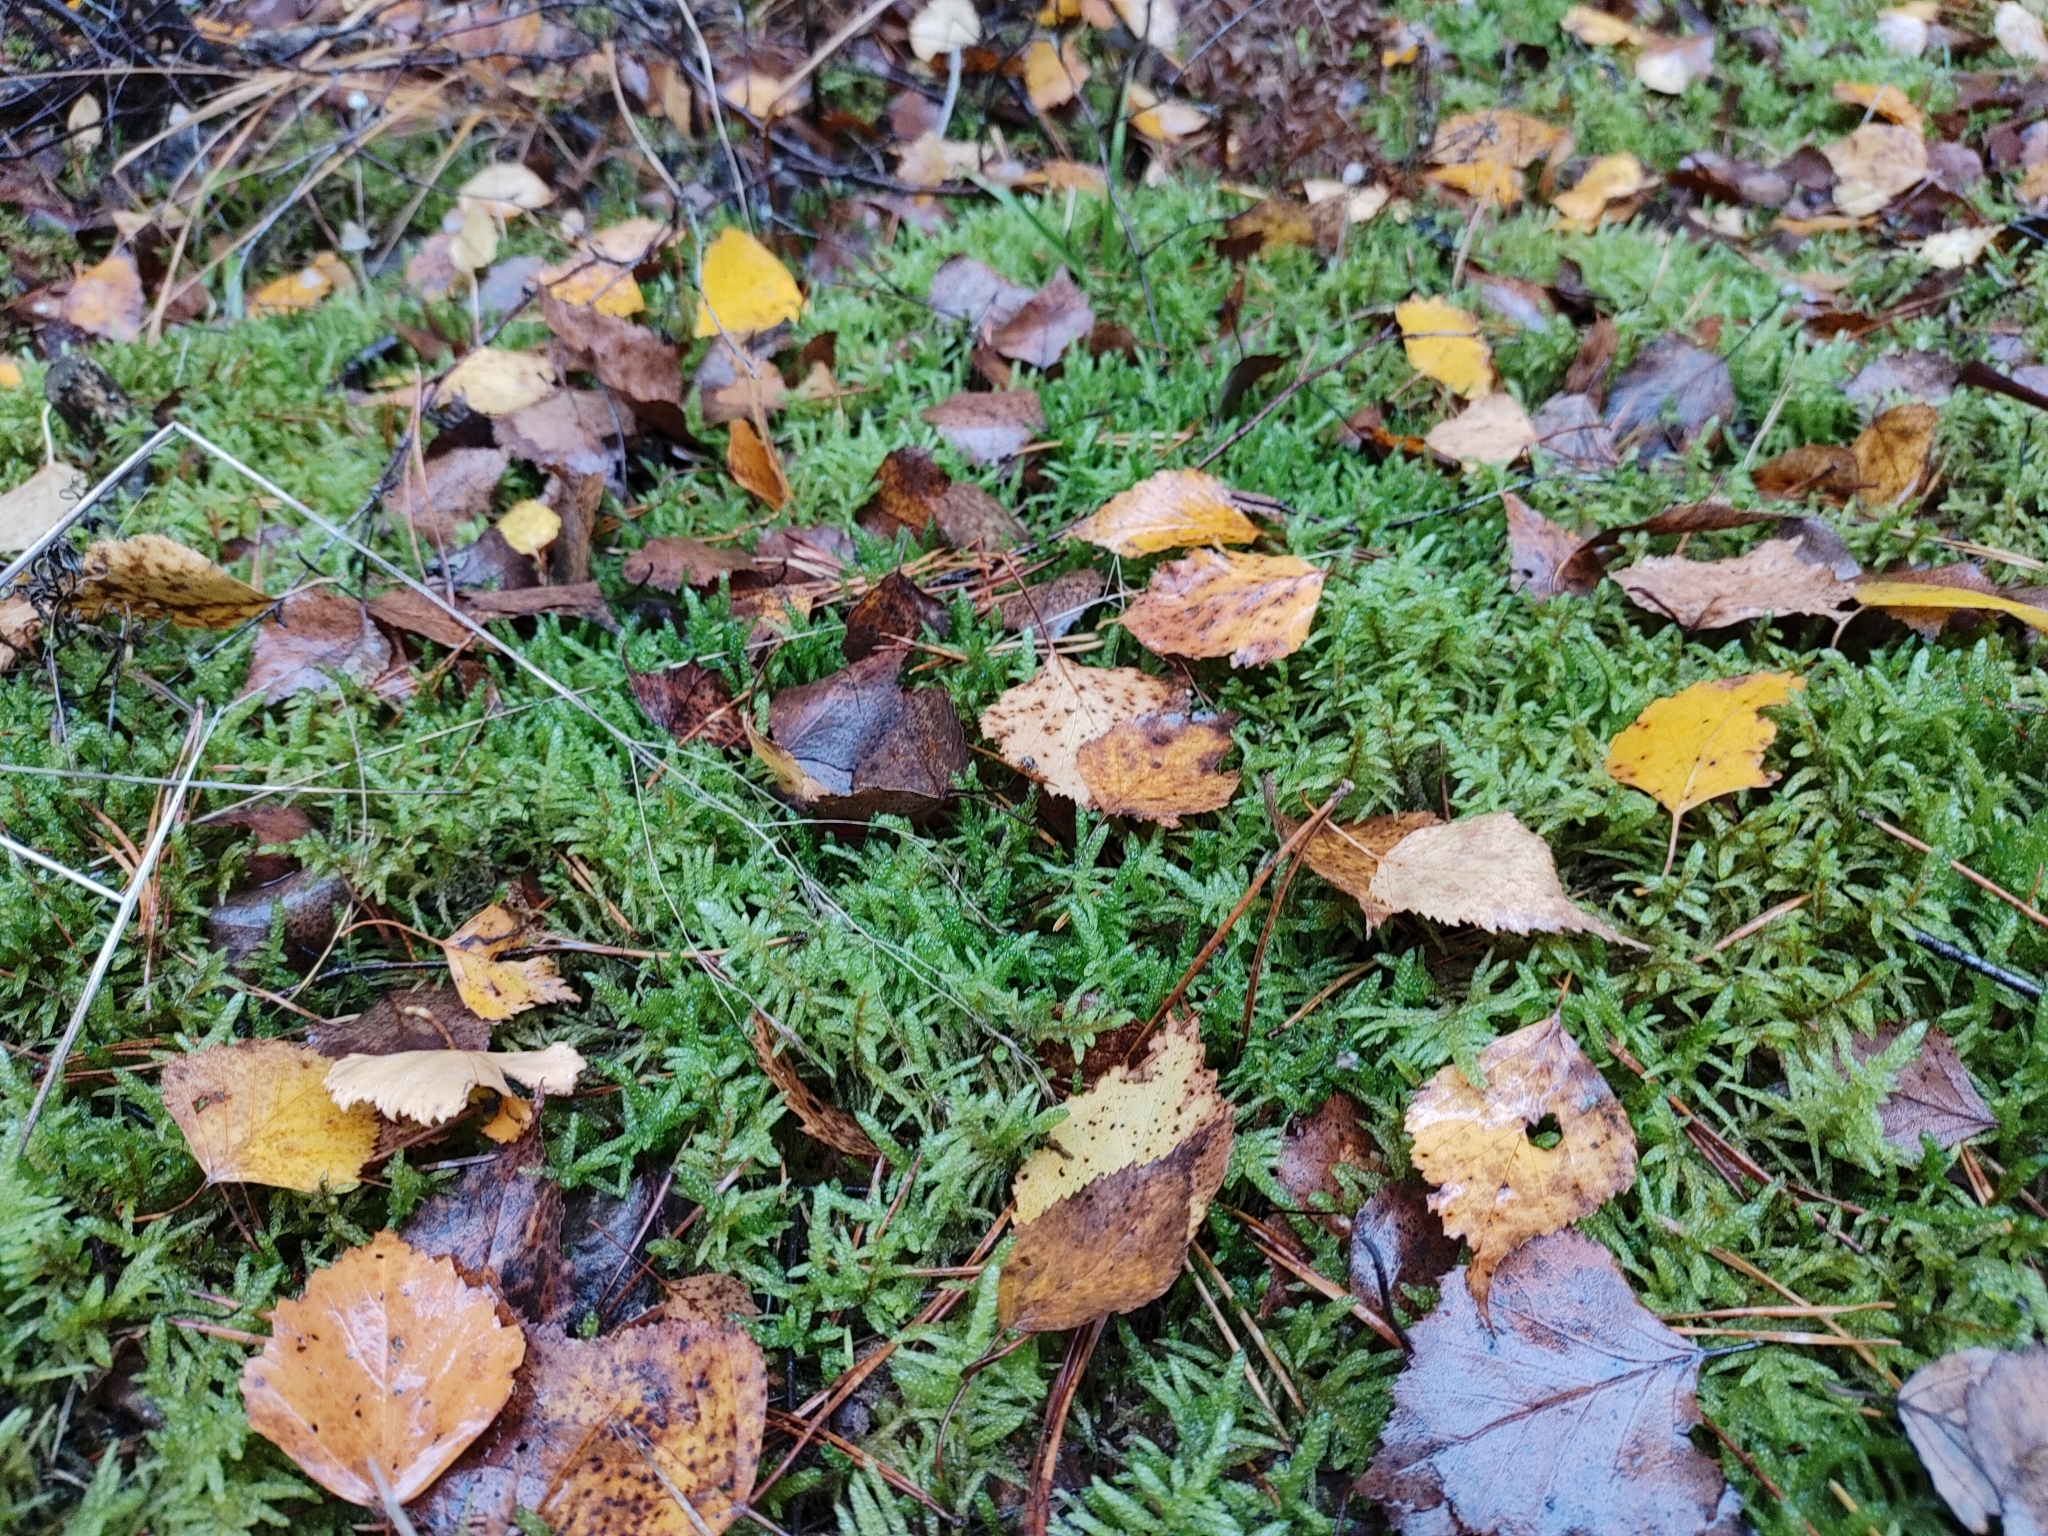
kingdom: Plantae
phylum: Bryophyta
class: Bryopsida
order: Hypnales
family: Brachytheciaceae
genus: Pseudoscleropodium
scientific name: Pseudoscleropodium purum
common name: Neat feather-moss
